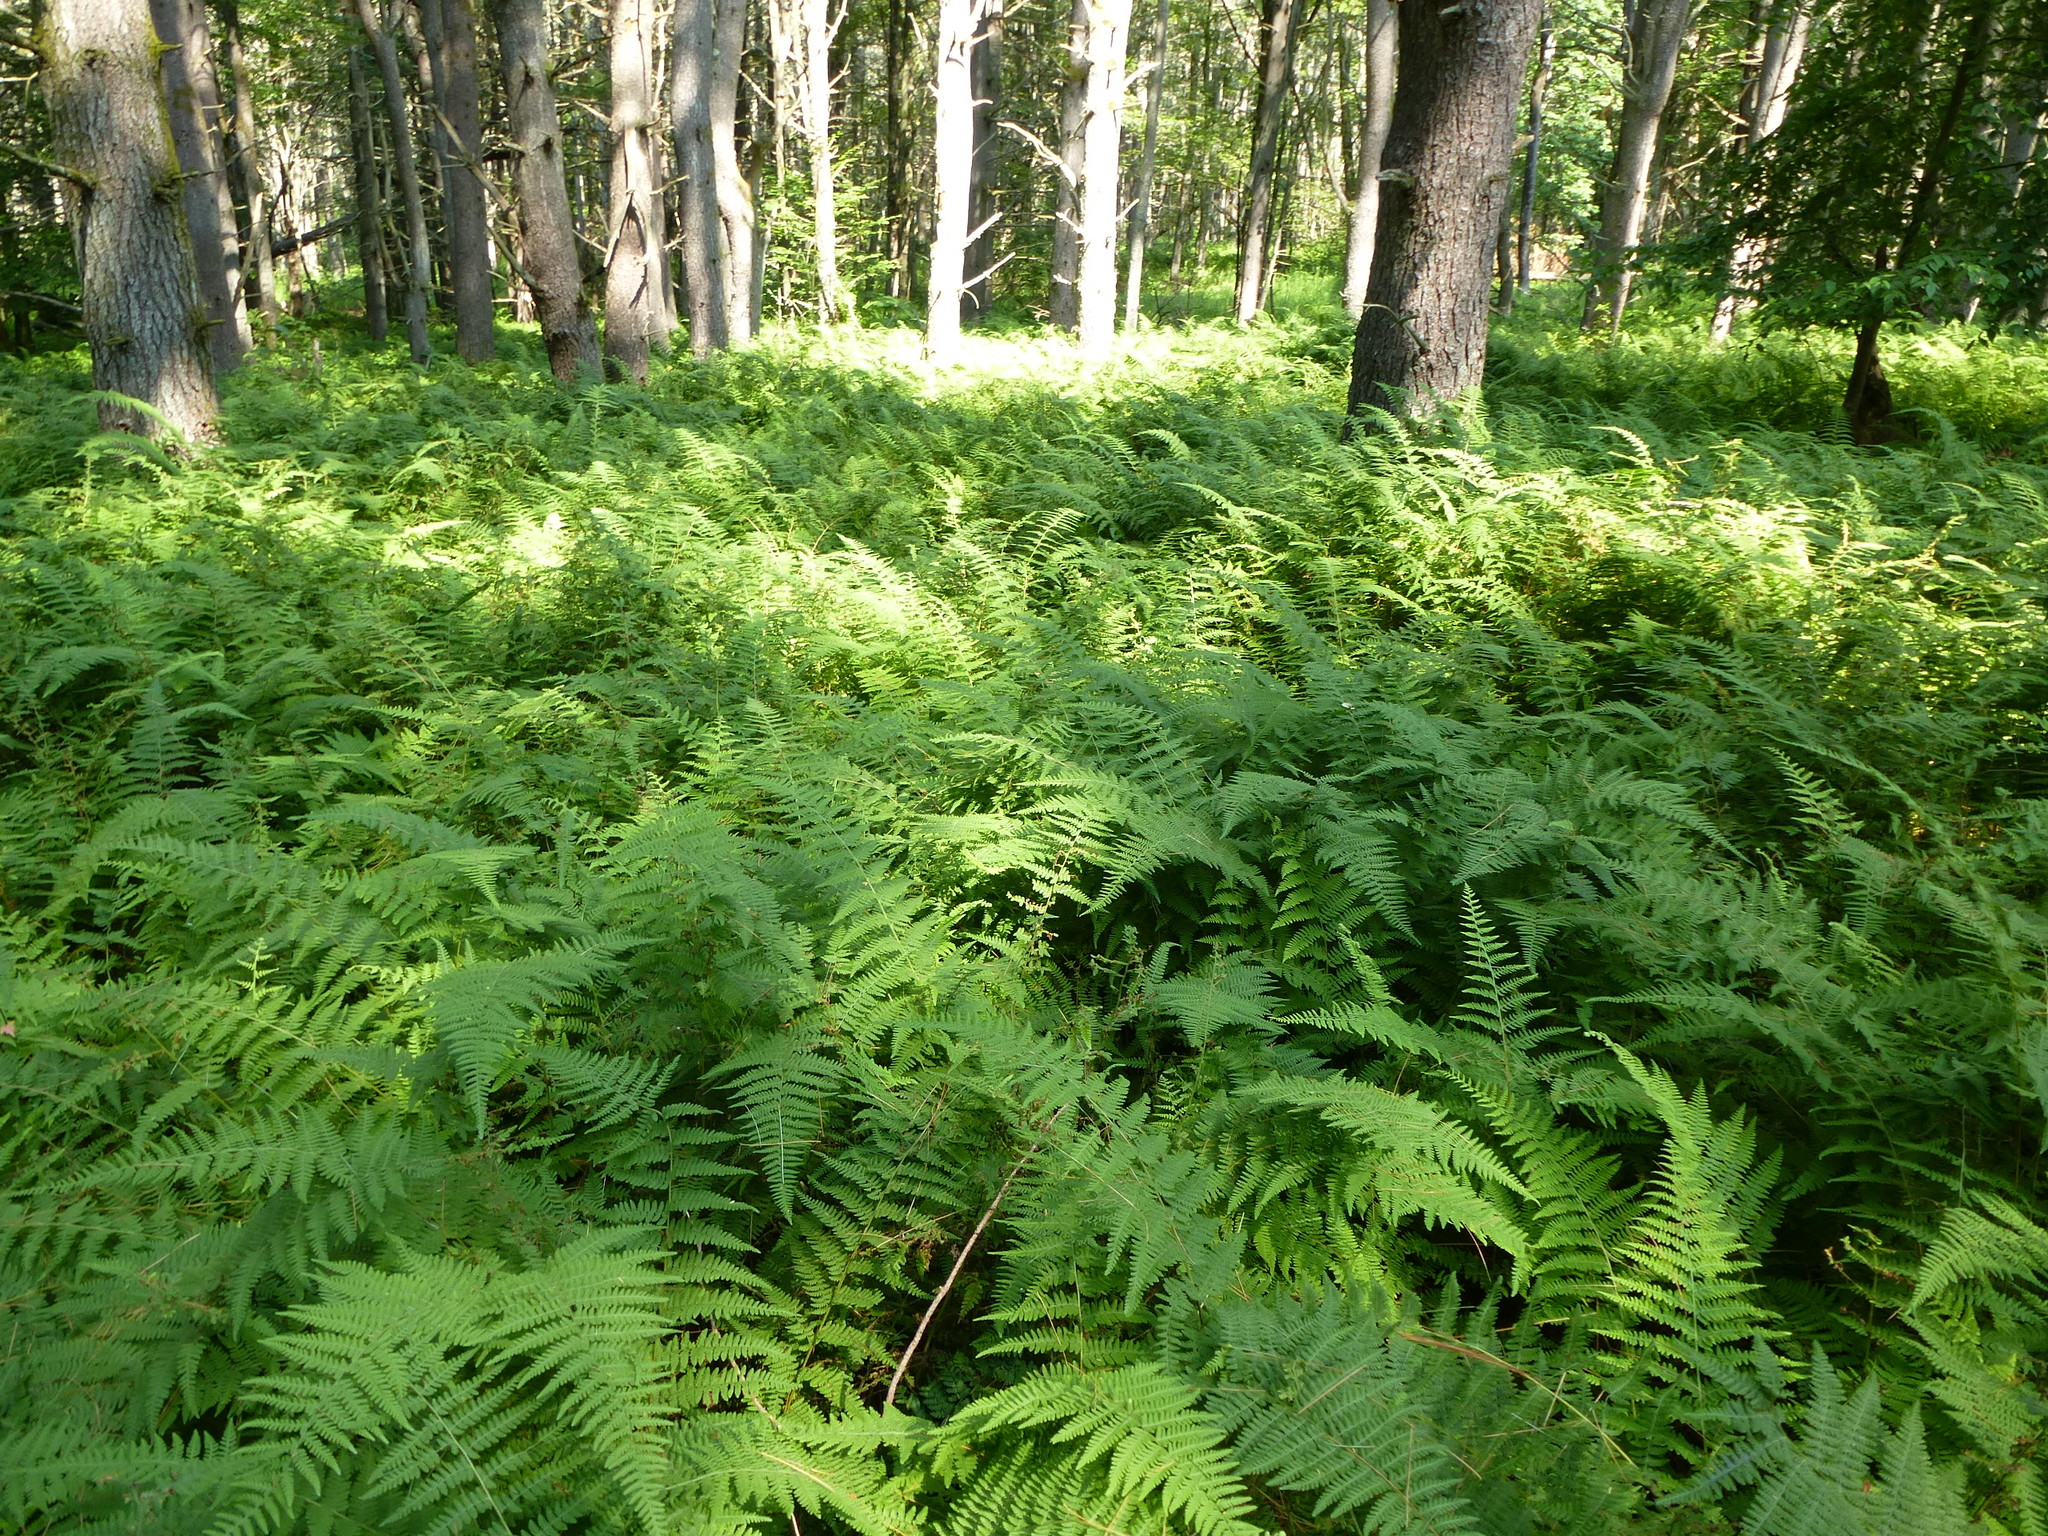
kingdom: Plantae
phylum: Tracheophyta
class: Polypodiopsida
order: Polypodiales
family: Dennstaedtiaceae
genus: Sitobolium
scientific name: Sitobolium punctilobum
